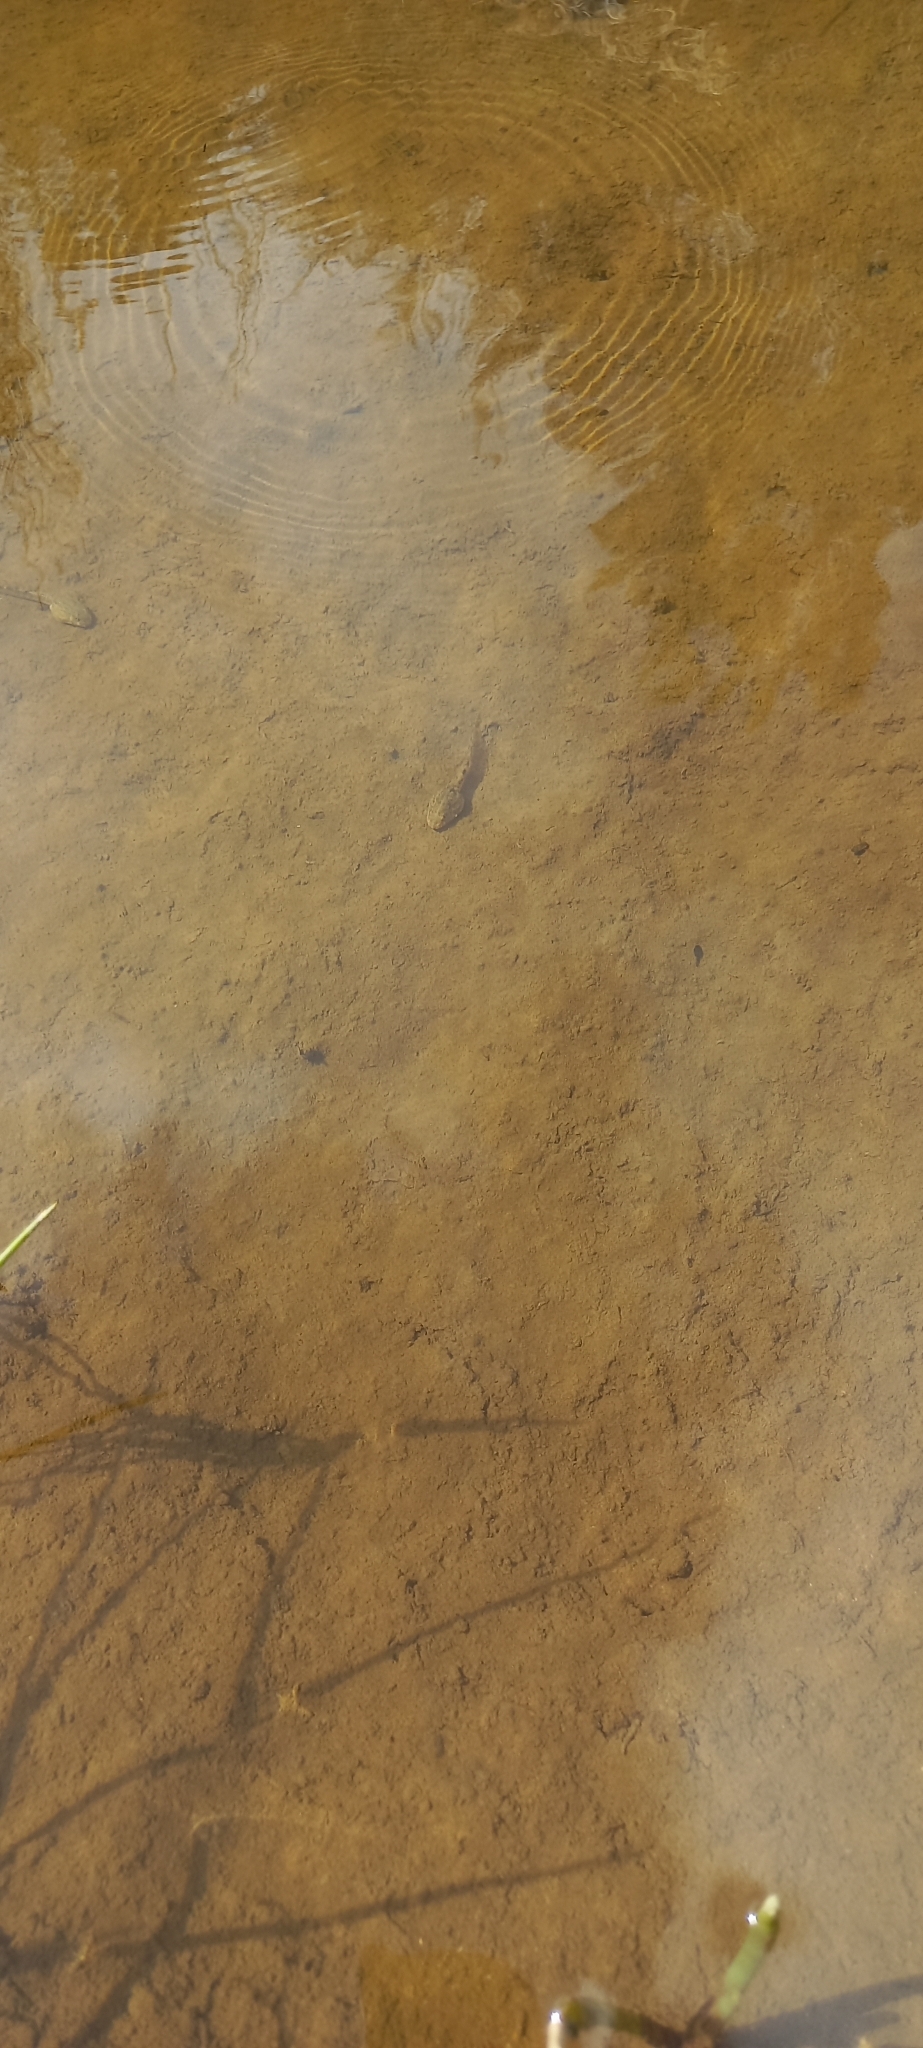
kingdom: Animalia
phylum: Chordata
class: Amphibia
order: Anura
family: Pyxicephalidae
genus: Amietia
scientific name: Amietia fuscigula
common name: Cape rana
